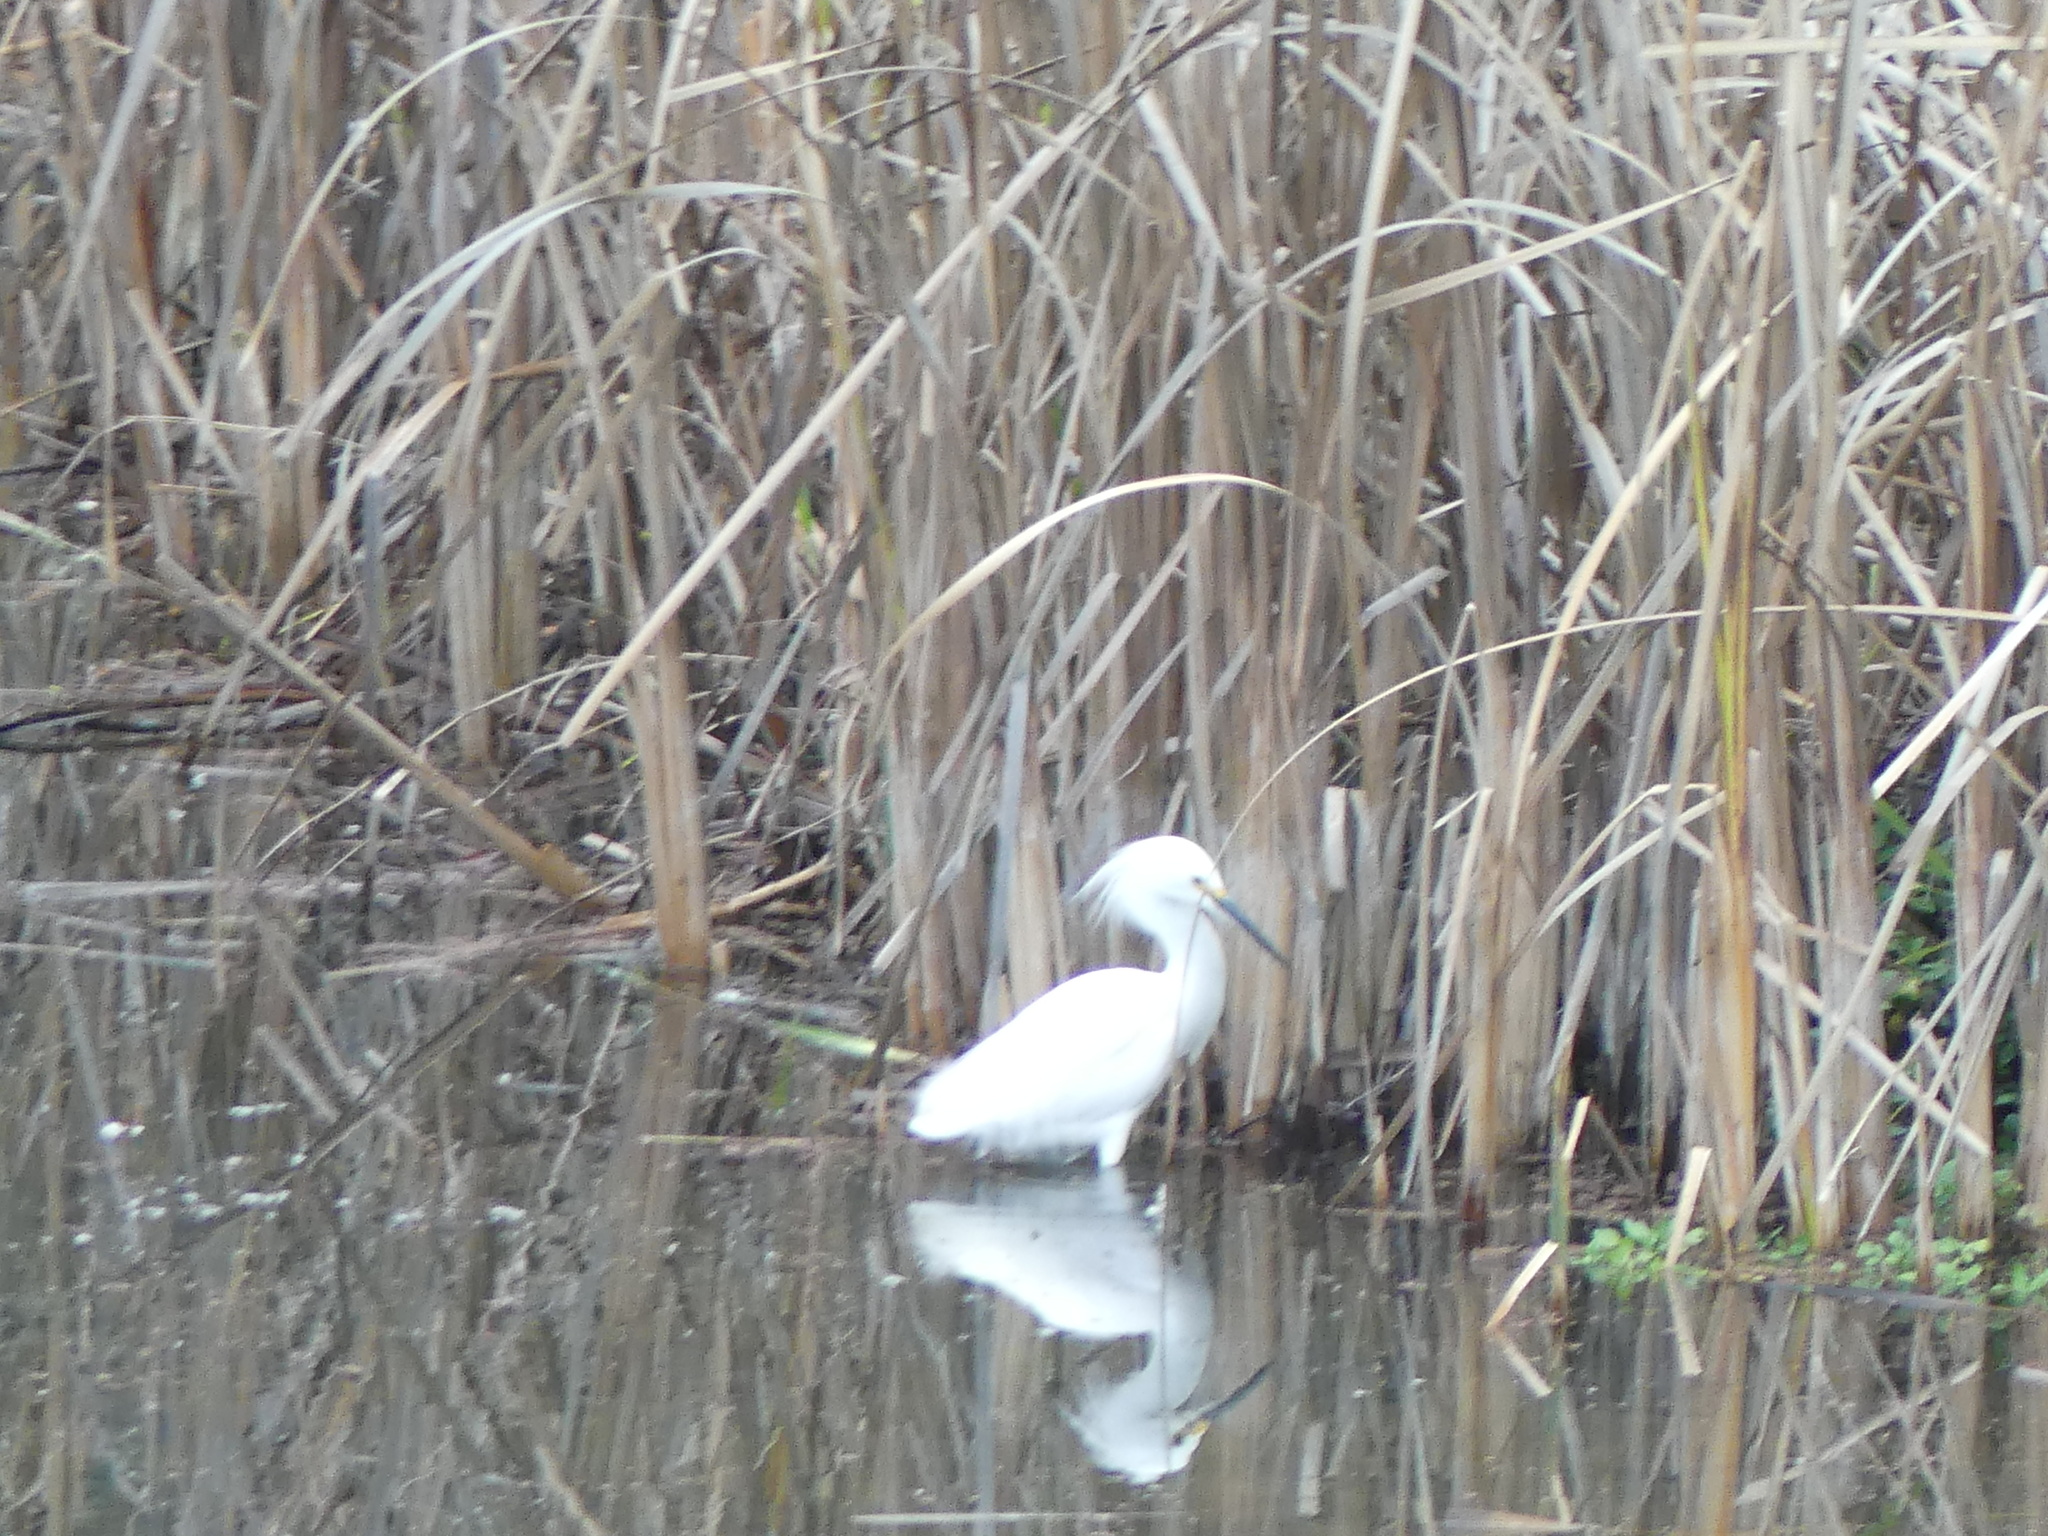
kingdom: Animalia
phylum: Chordata
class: Aves
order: Pelecaniformes
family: Ardeidae
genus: Egretta
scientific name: Egretta thula
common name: Snowy egret
